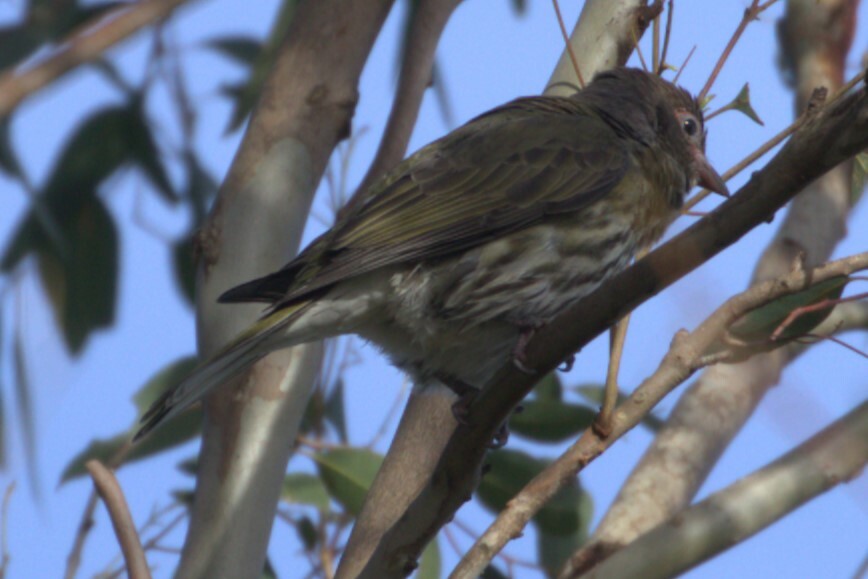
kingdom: Animalia
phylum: Chordata
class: Aves
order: Passeriformes
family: Oriolidae
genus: Sphecotheres
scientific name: Sphecotheres vieilloti
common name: Australasian figbird
